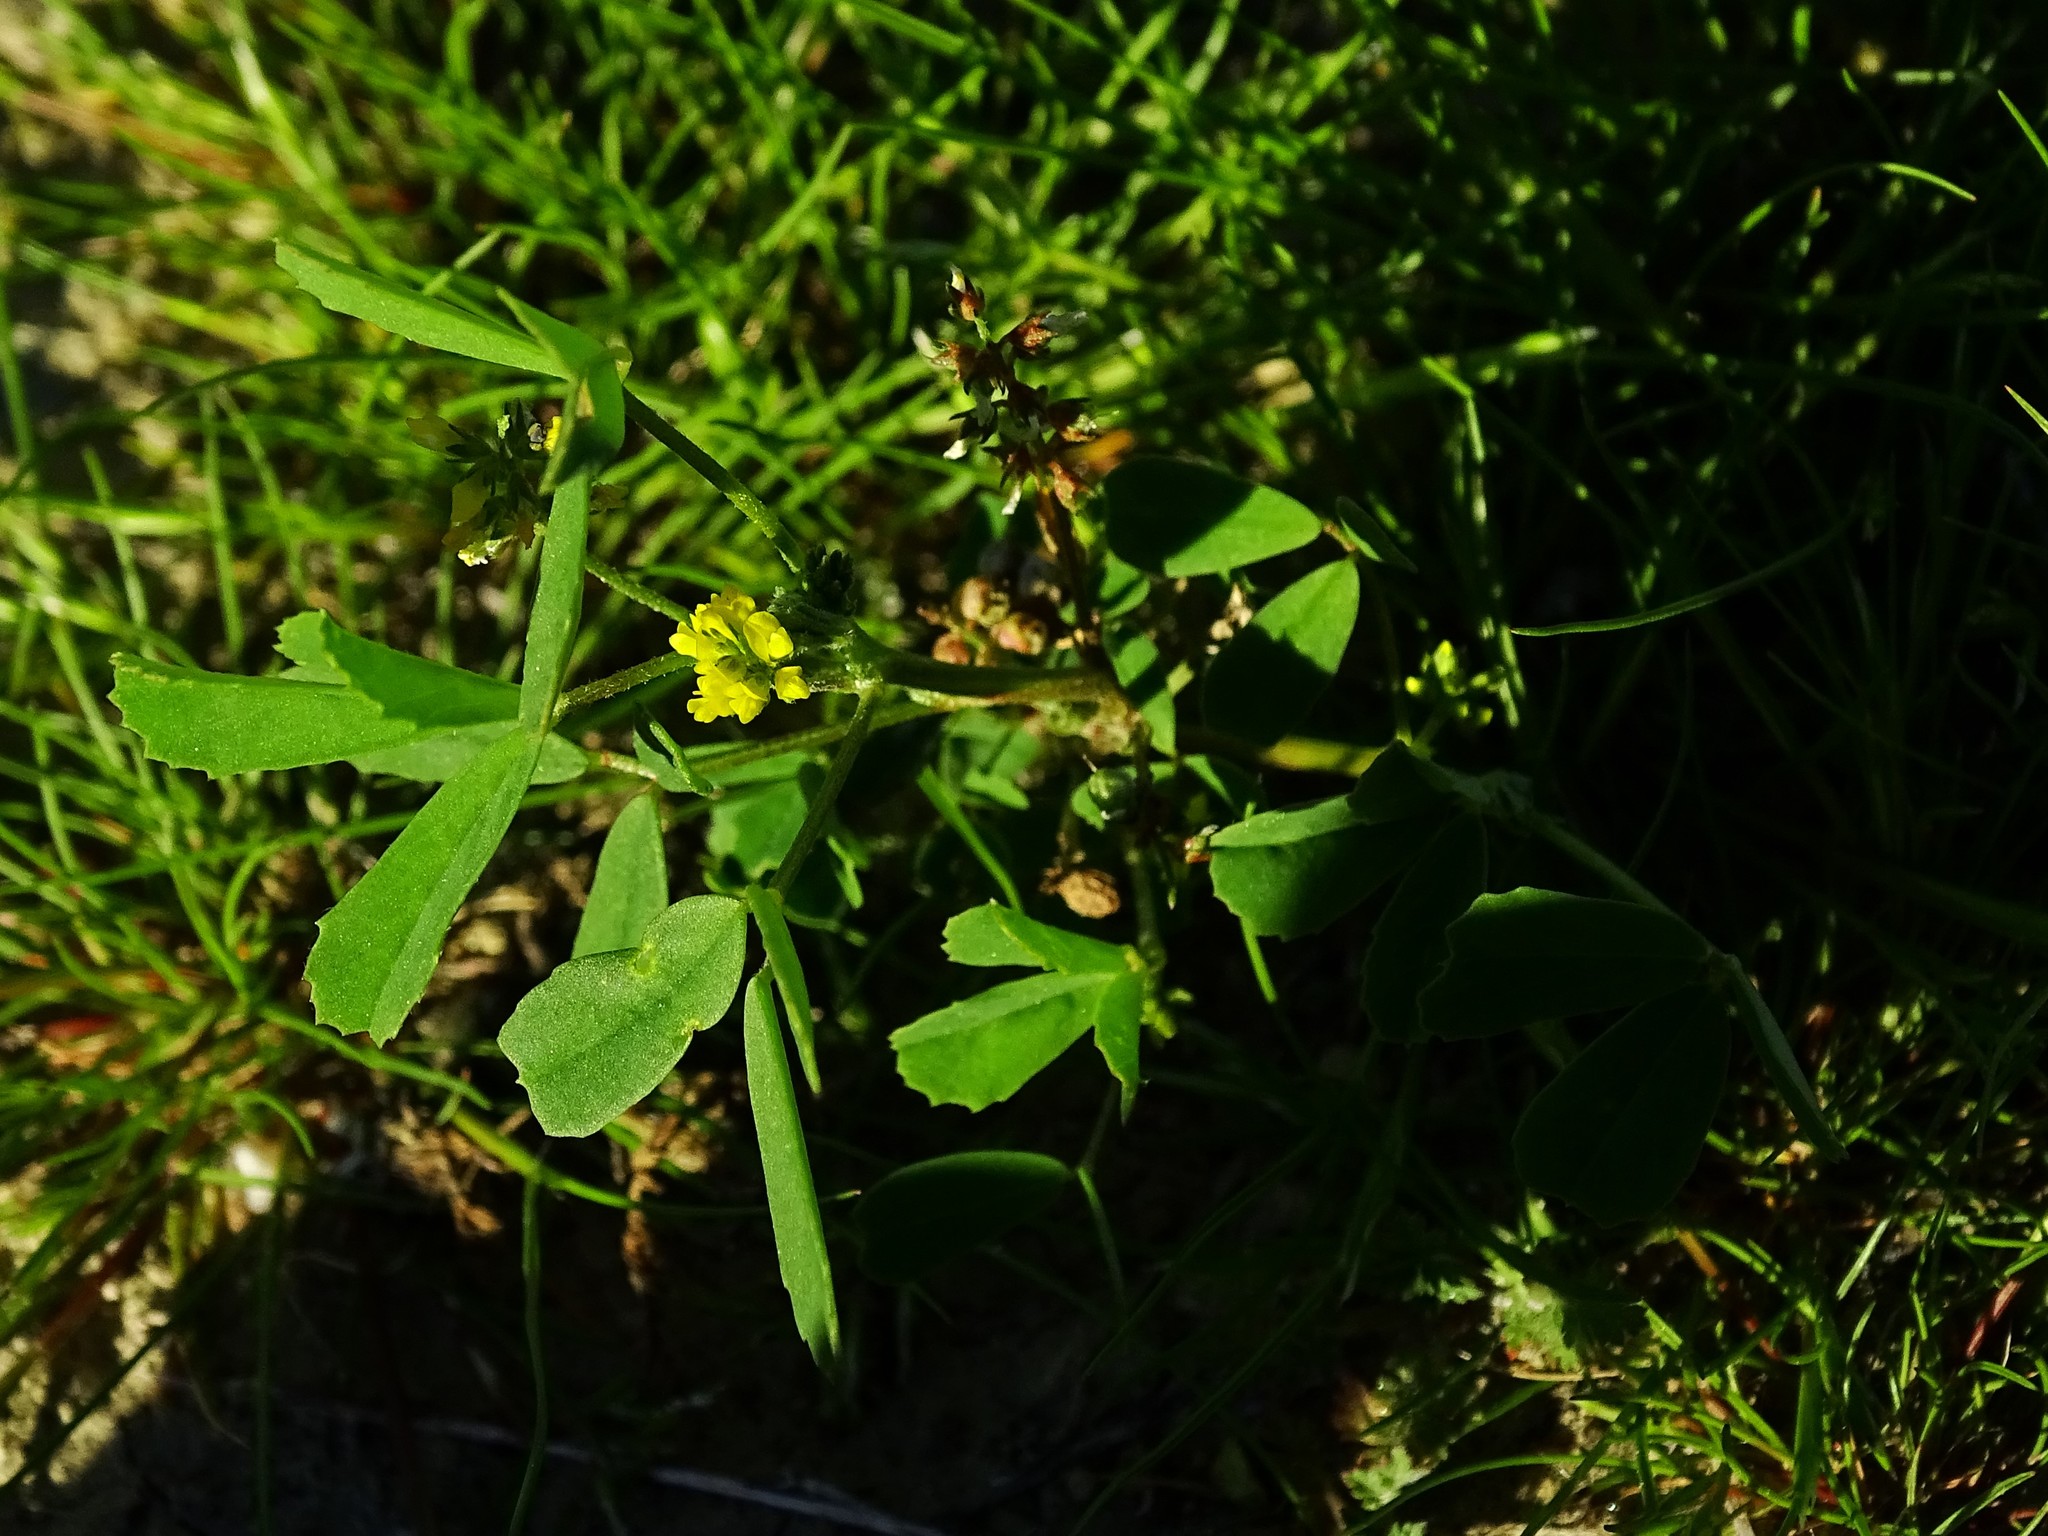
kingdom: Plantae
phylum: Tracheophyta
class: Magnoliopsida
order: Fabales
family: Fabaceae
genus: Melilotus
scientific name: Melilotus indicus
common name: Small melilot
